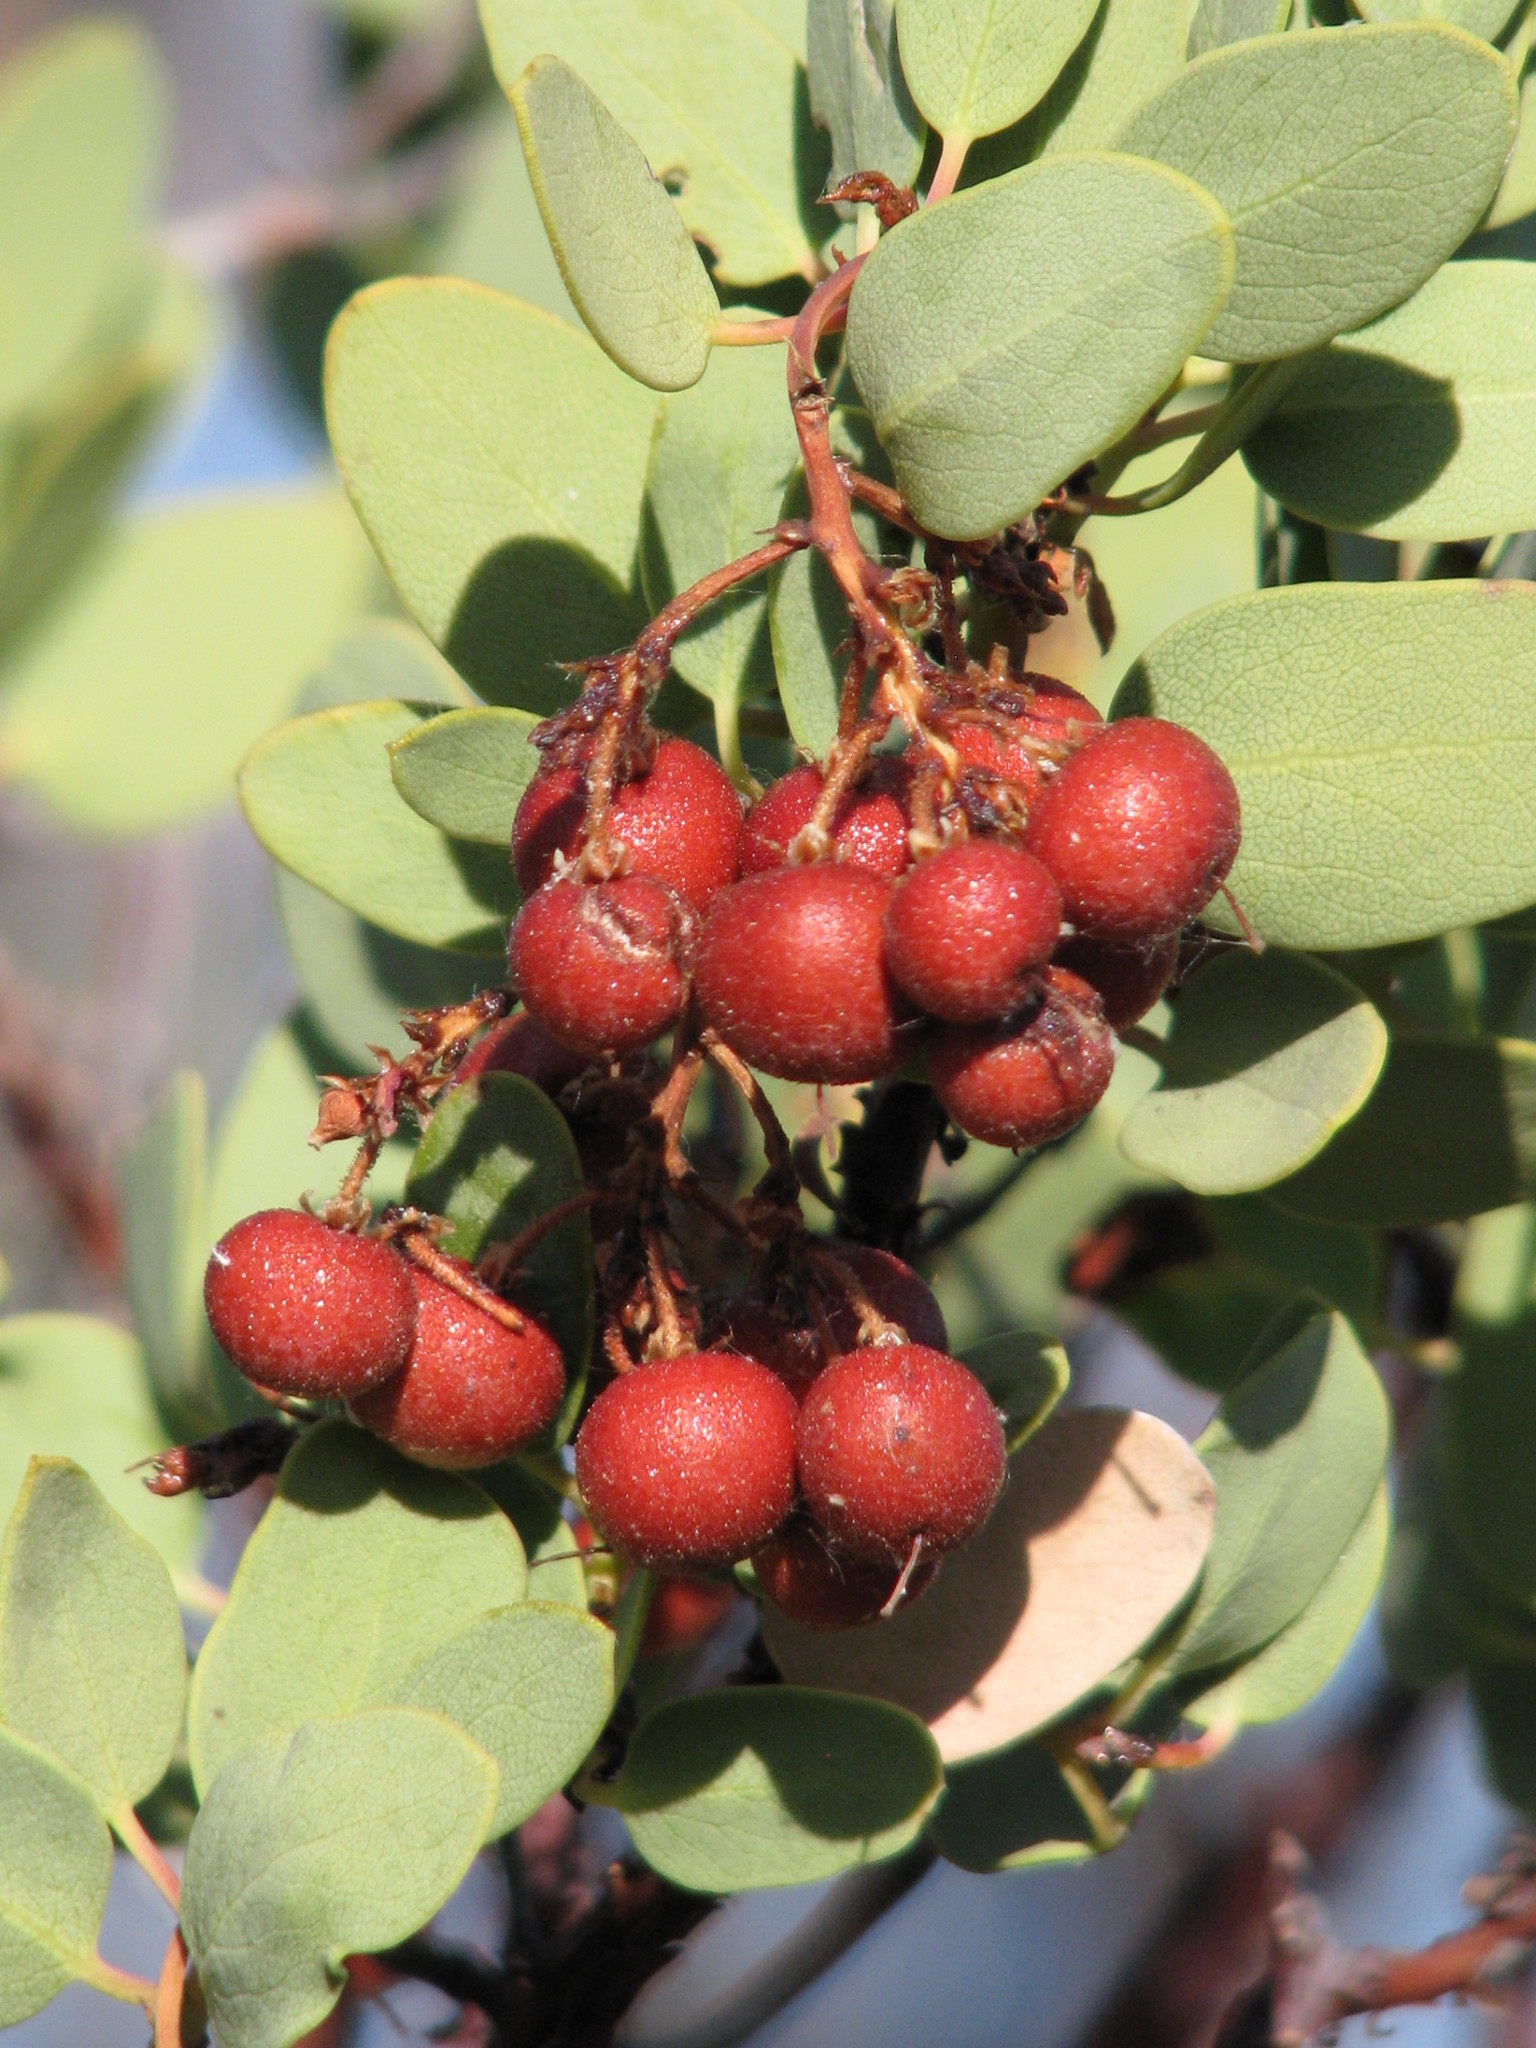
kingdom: Plantae
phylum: Tracheophyta
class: Magnoliopsida
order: Ericales
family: Ericaceae
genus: Arctostaphylos
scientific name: Arctostaphylos viscida
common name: White-leaf manzanita
